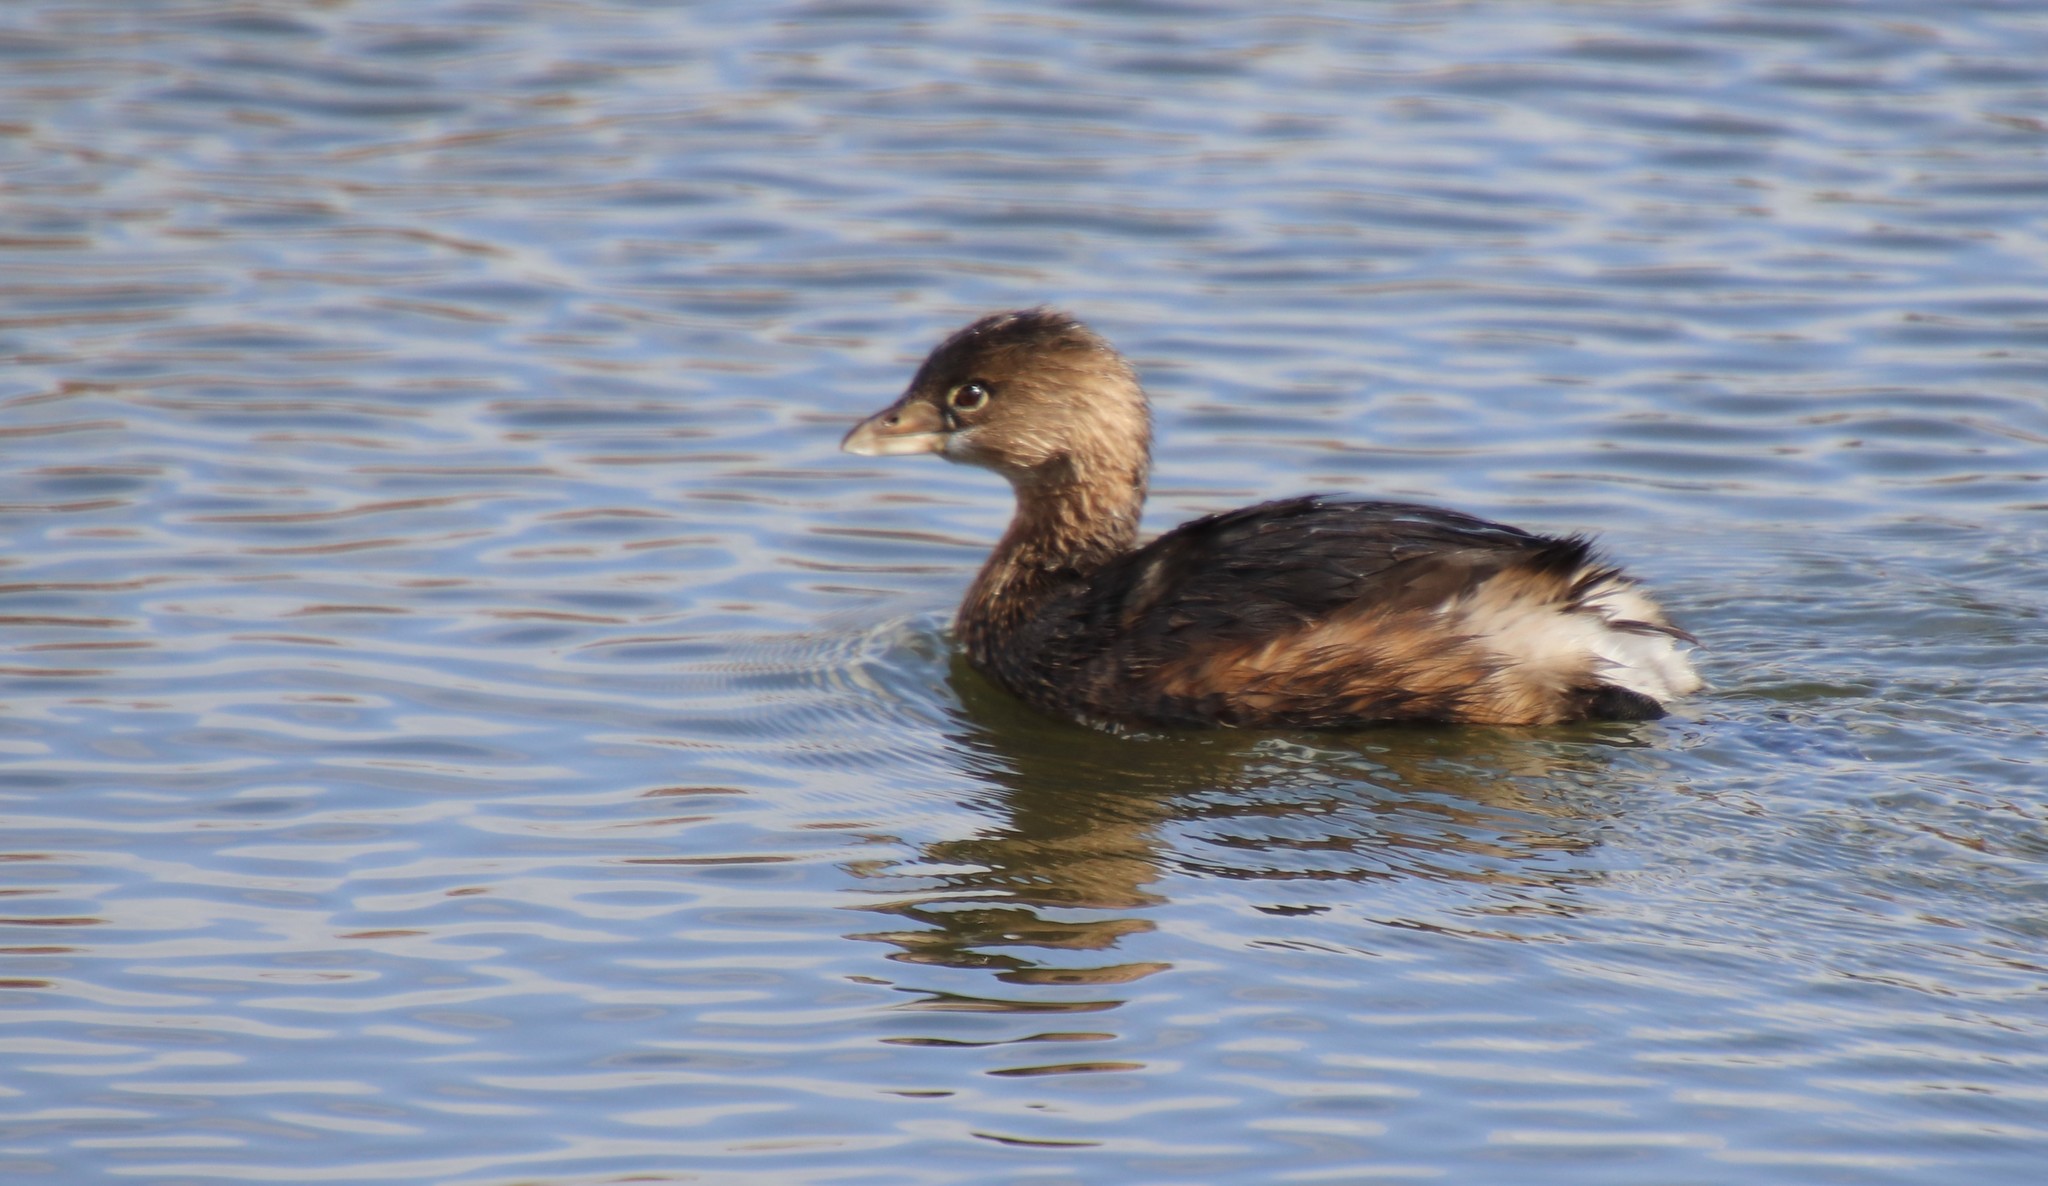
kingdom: Animalia
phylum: Chordata
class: Aves
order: Podicipediformes
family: Podicipedidae
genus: Podilymbus
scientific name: Podilymbus podiceps
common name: Pied-billed grebe
